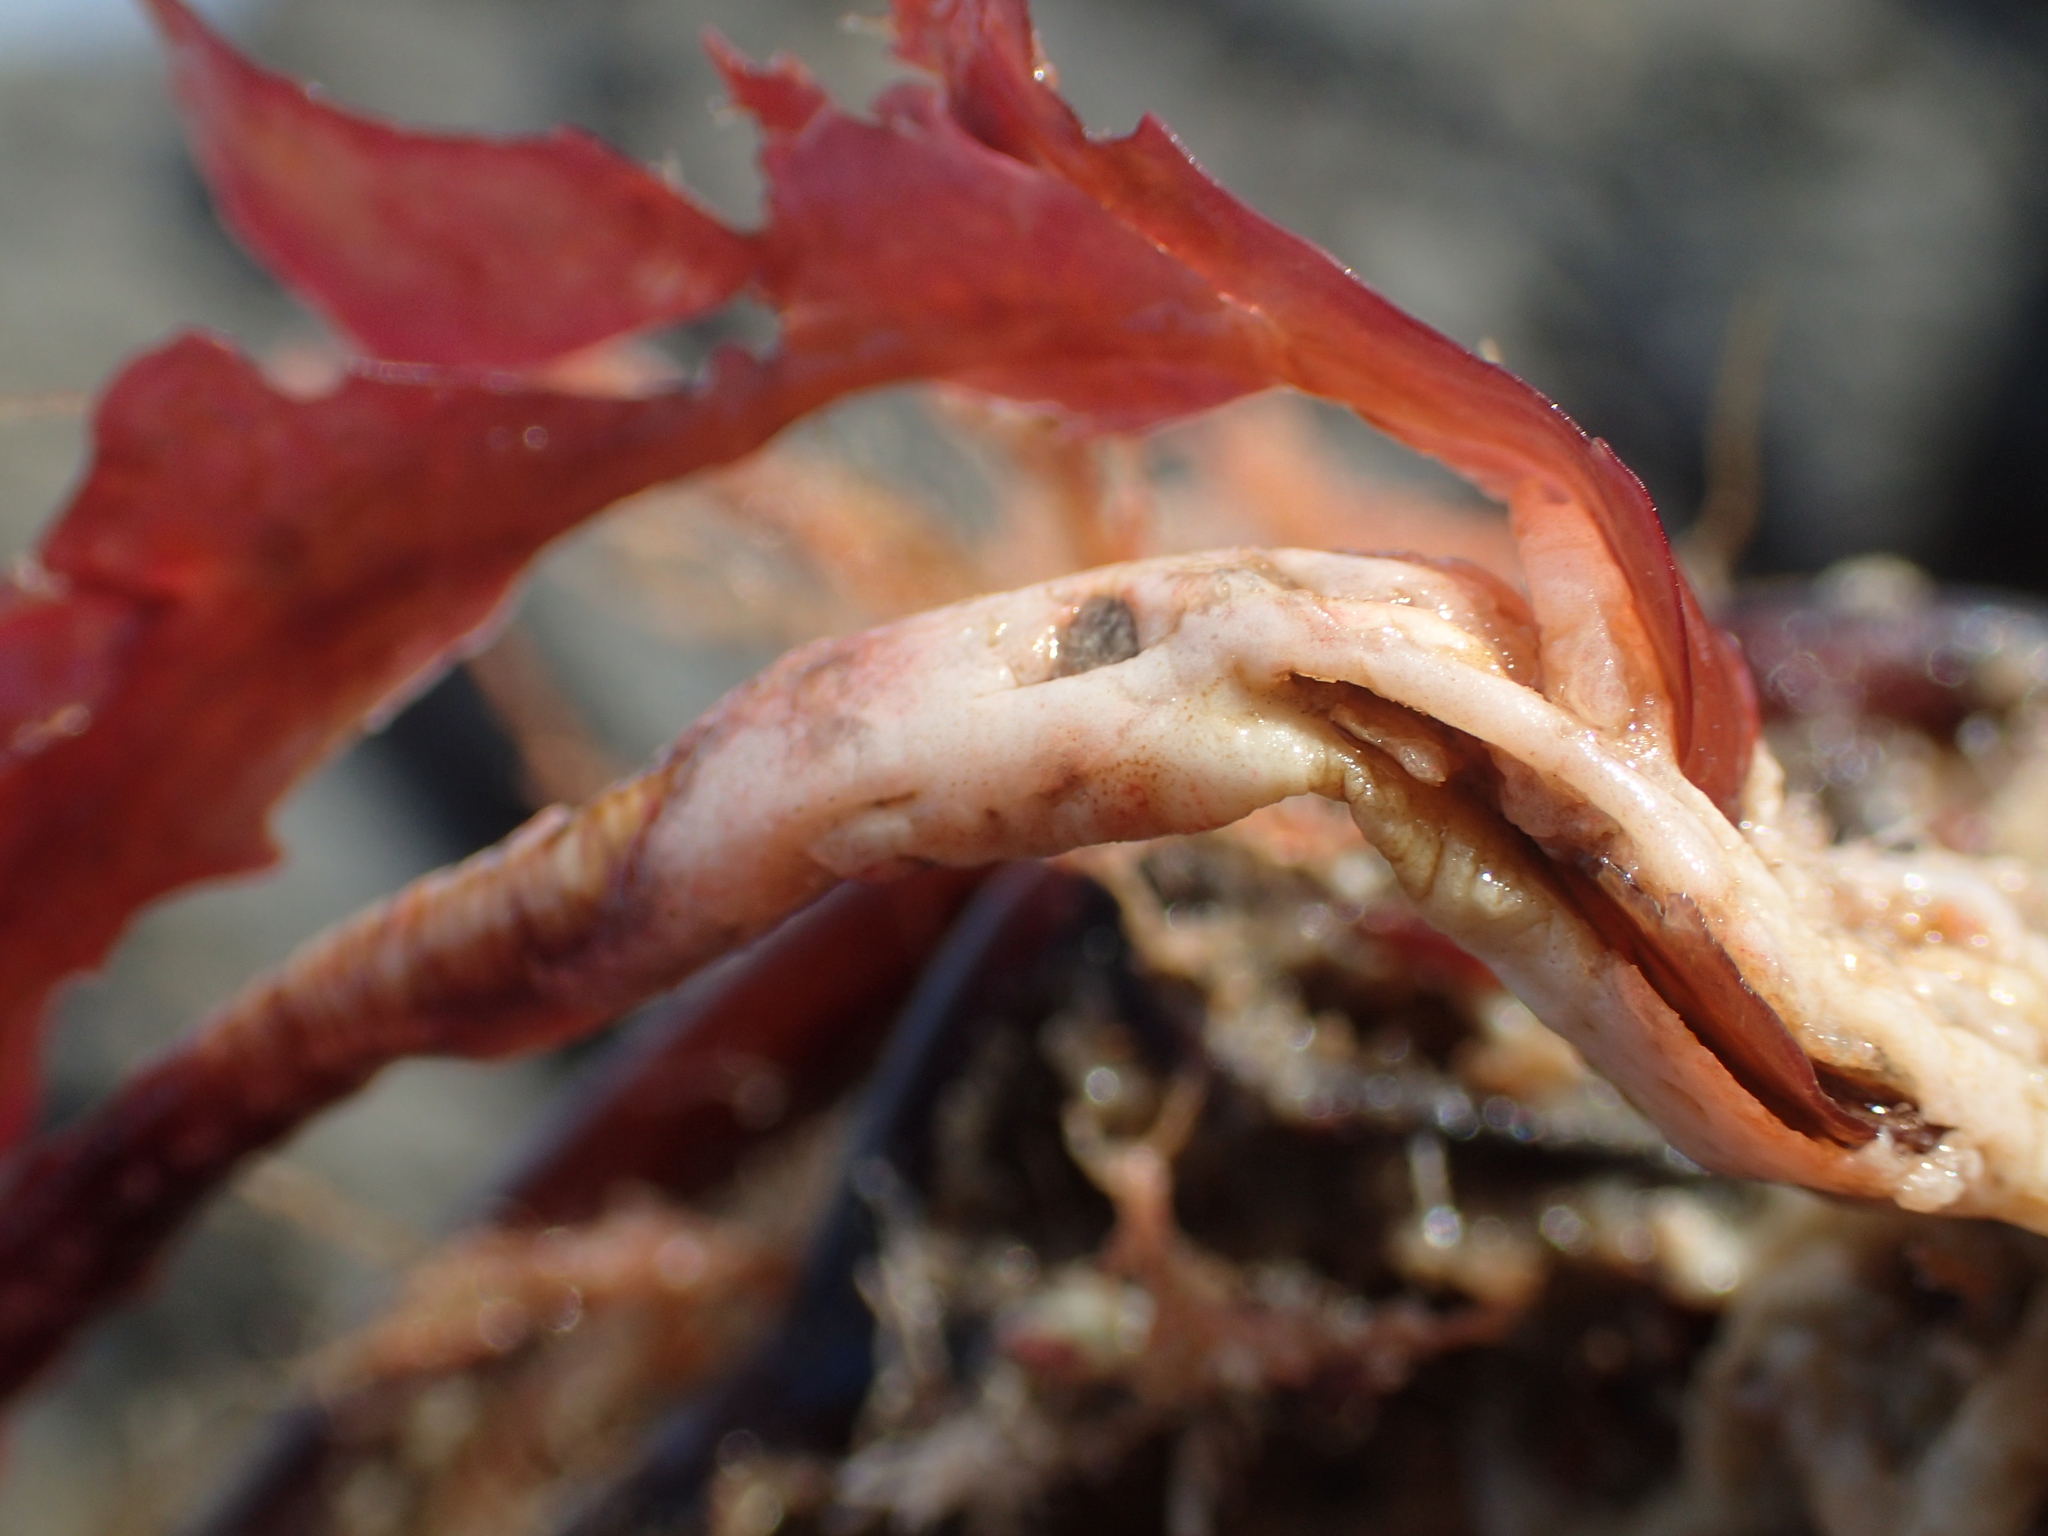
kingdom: Animalia
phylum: Chordata
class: Ascidiacea
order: Stolidobranchia
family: Pyuridae
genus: Pyura
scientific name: Pyura pachydermatina
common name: Sea tulip
